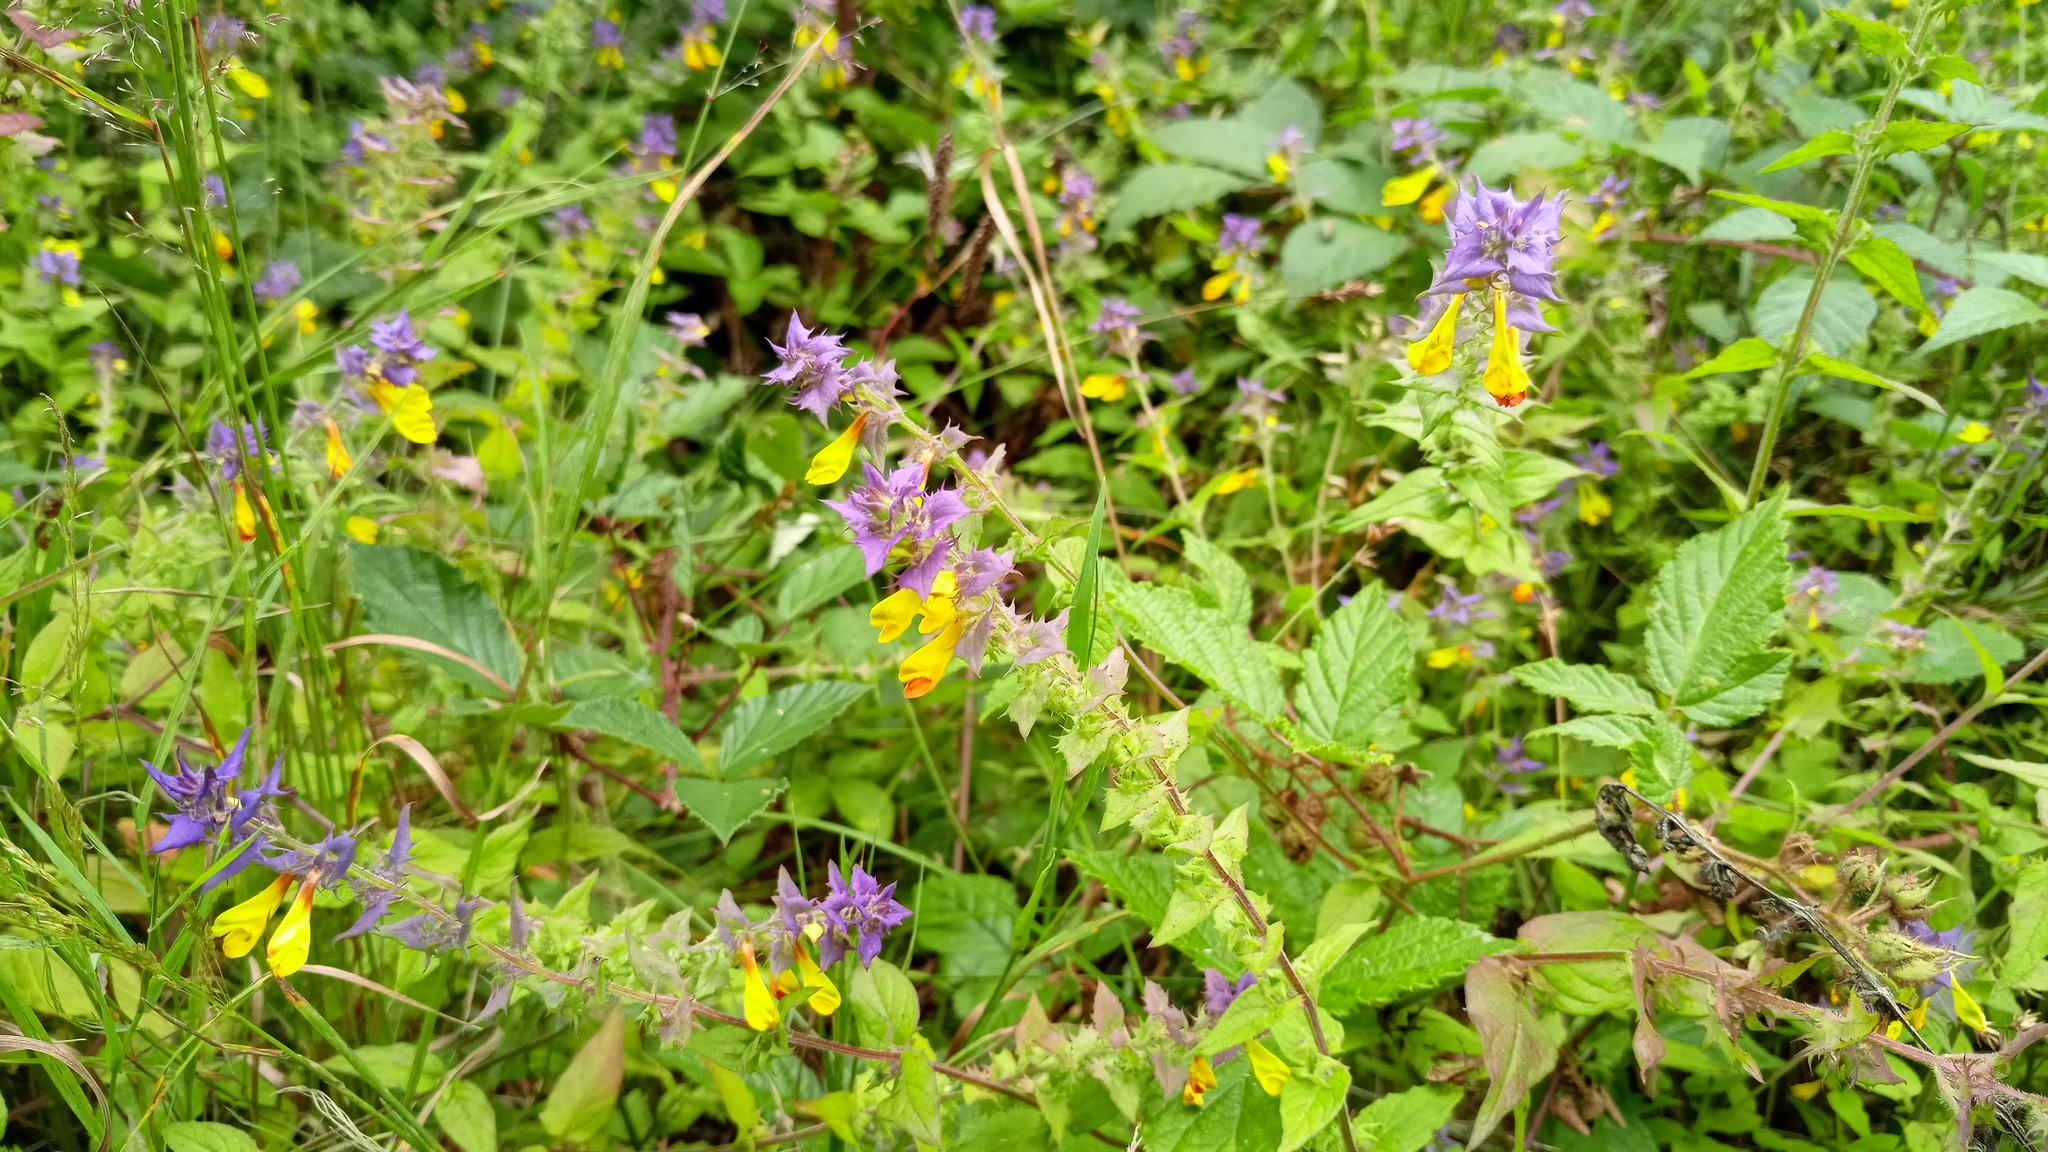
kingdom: Plantae
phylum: Tracheophyta
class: Magnoliopsida
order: Lamiales
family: Orobanchaceae
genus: Melampyrum
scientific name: Melampyrum nemorosum
